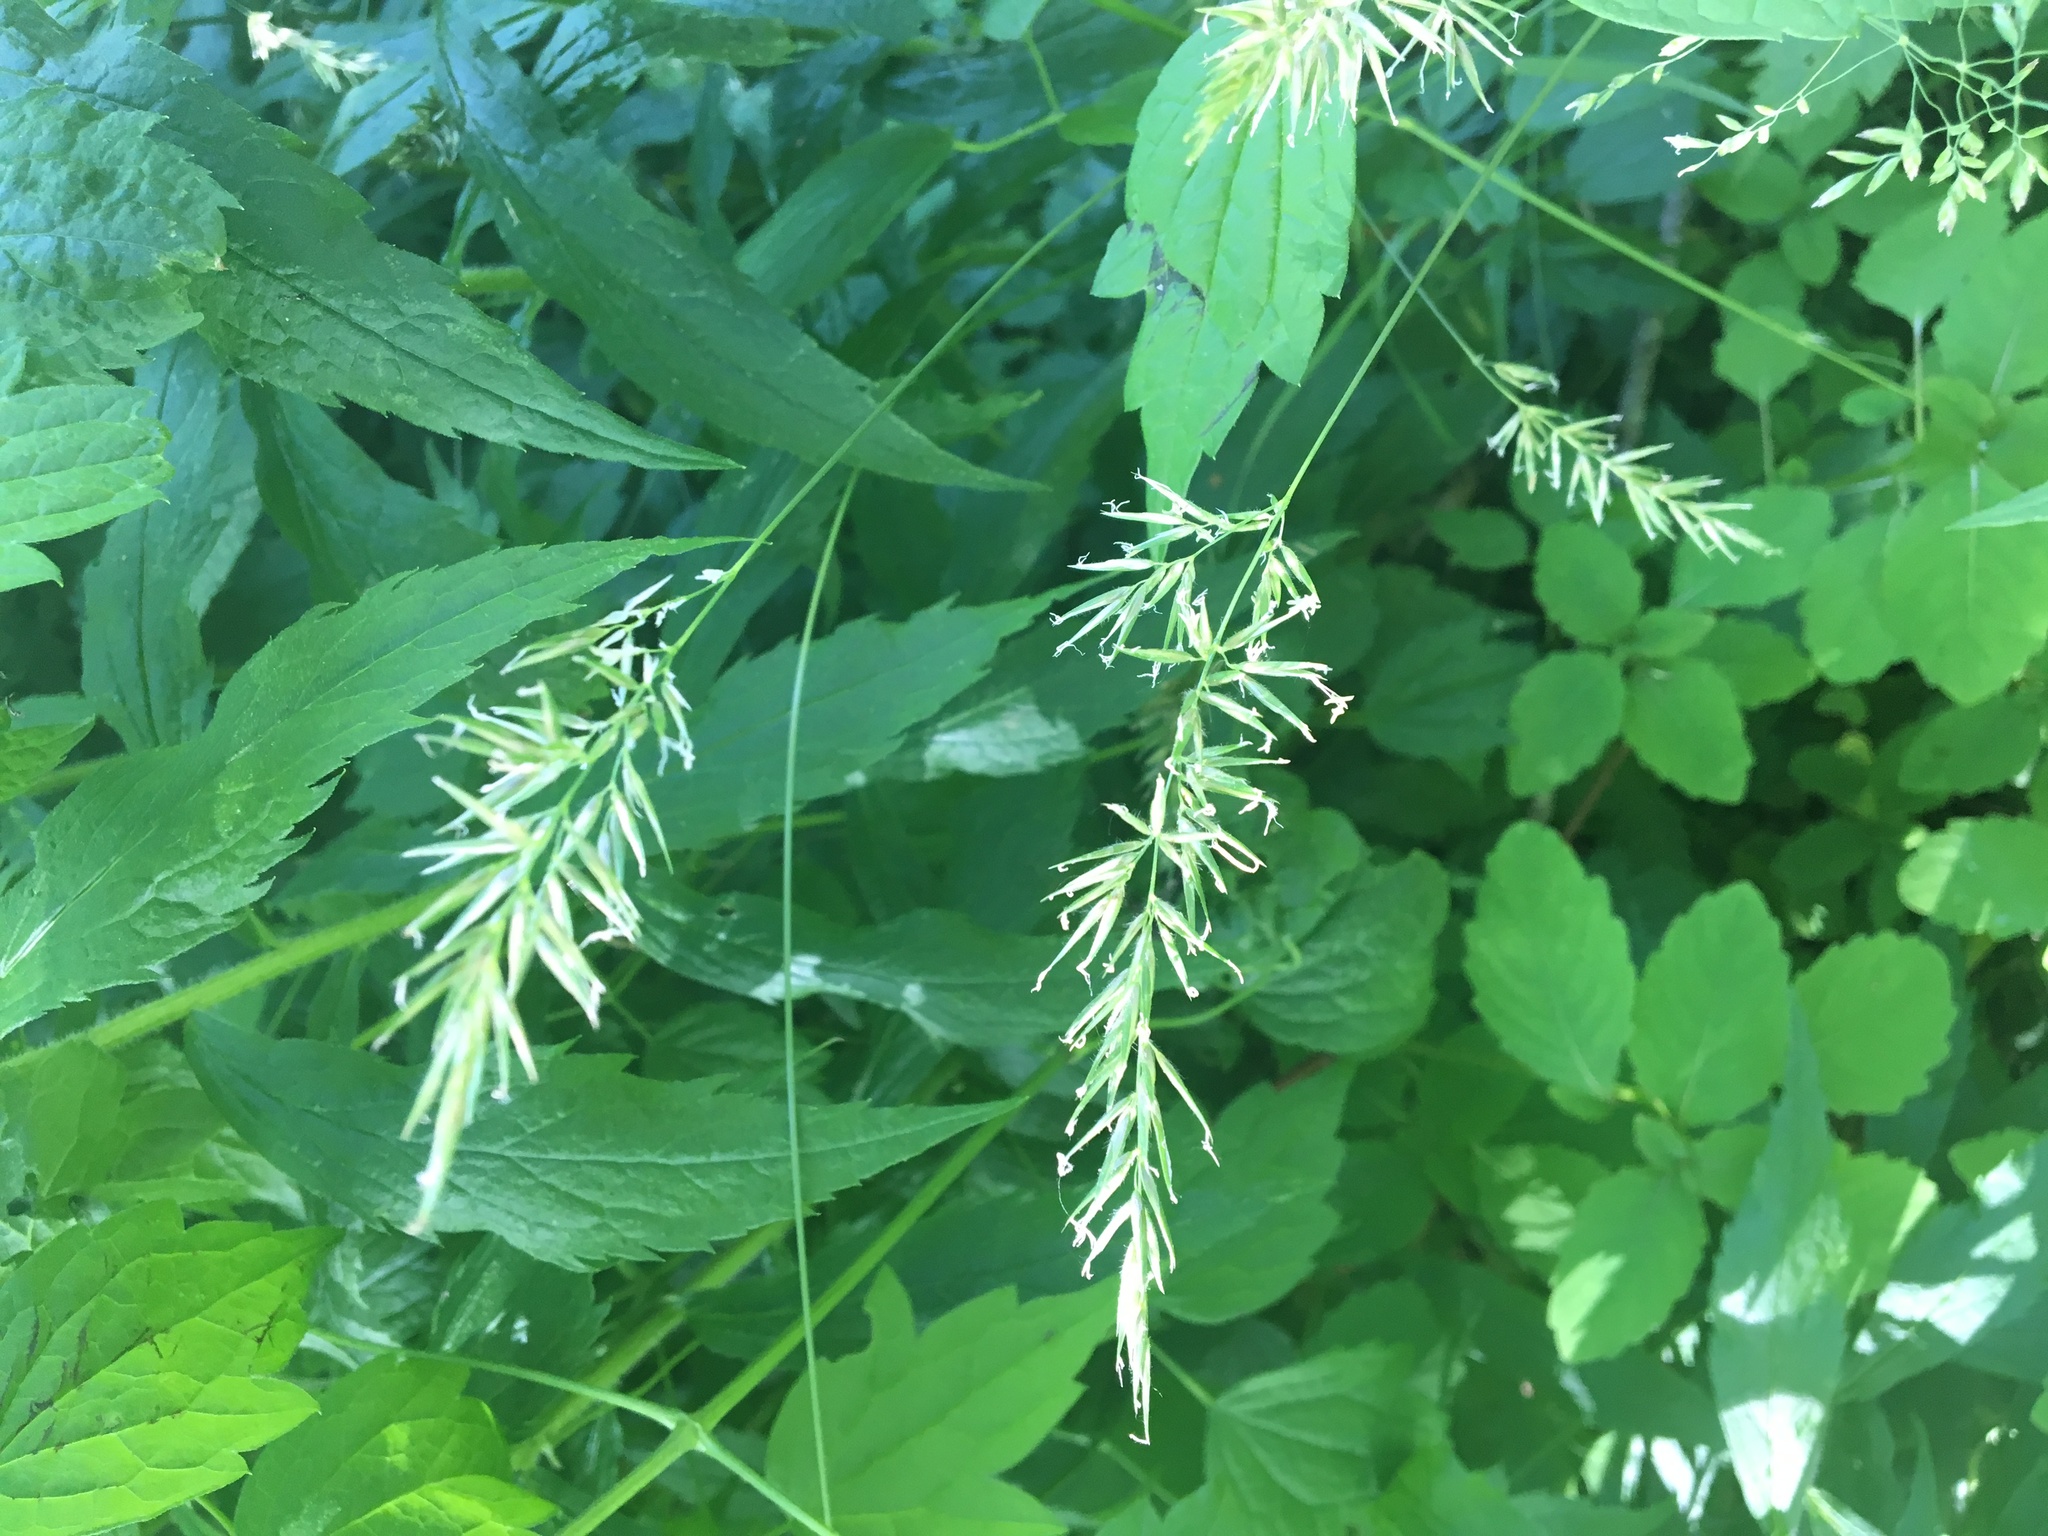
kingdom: Plantae
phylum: Tracheophyta
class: Liliopsida
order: Poales
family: Poaceae
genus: Anthoxanthum
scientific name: Anthoxanthum odoratum
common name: Sweet vernalgrass
